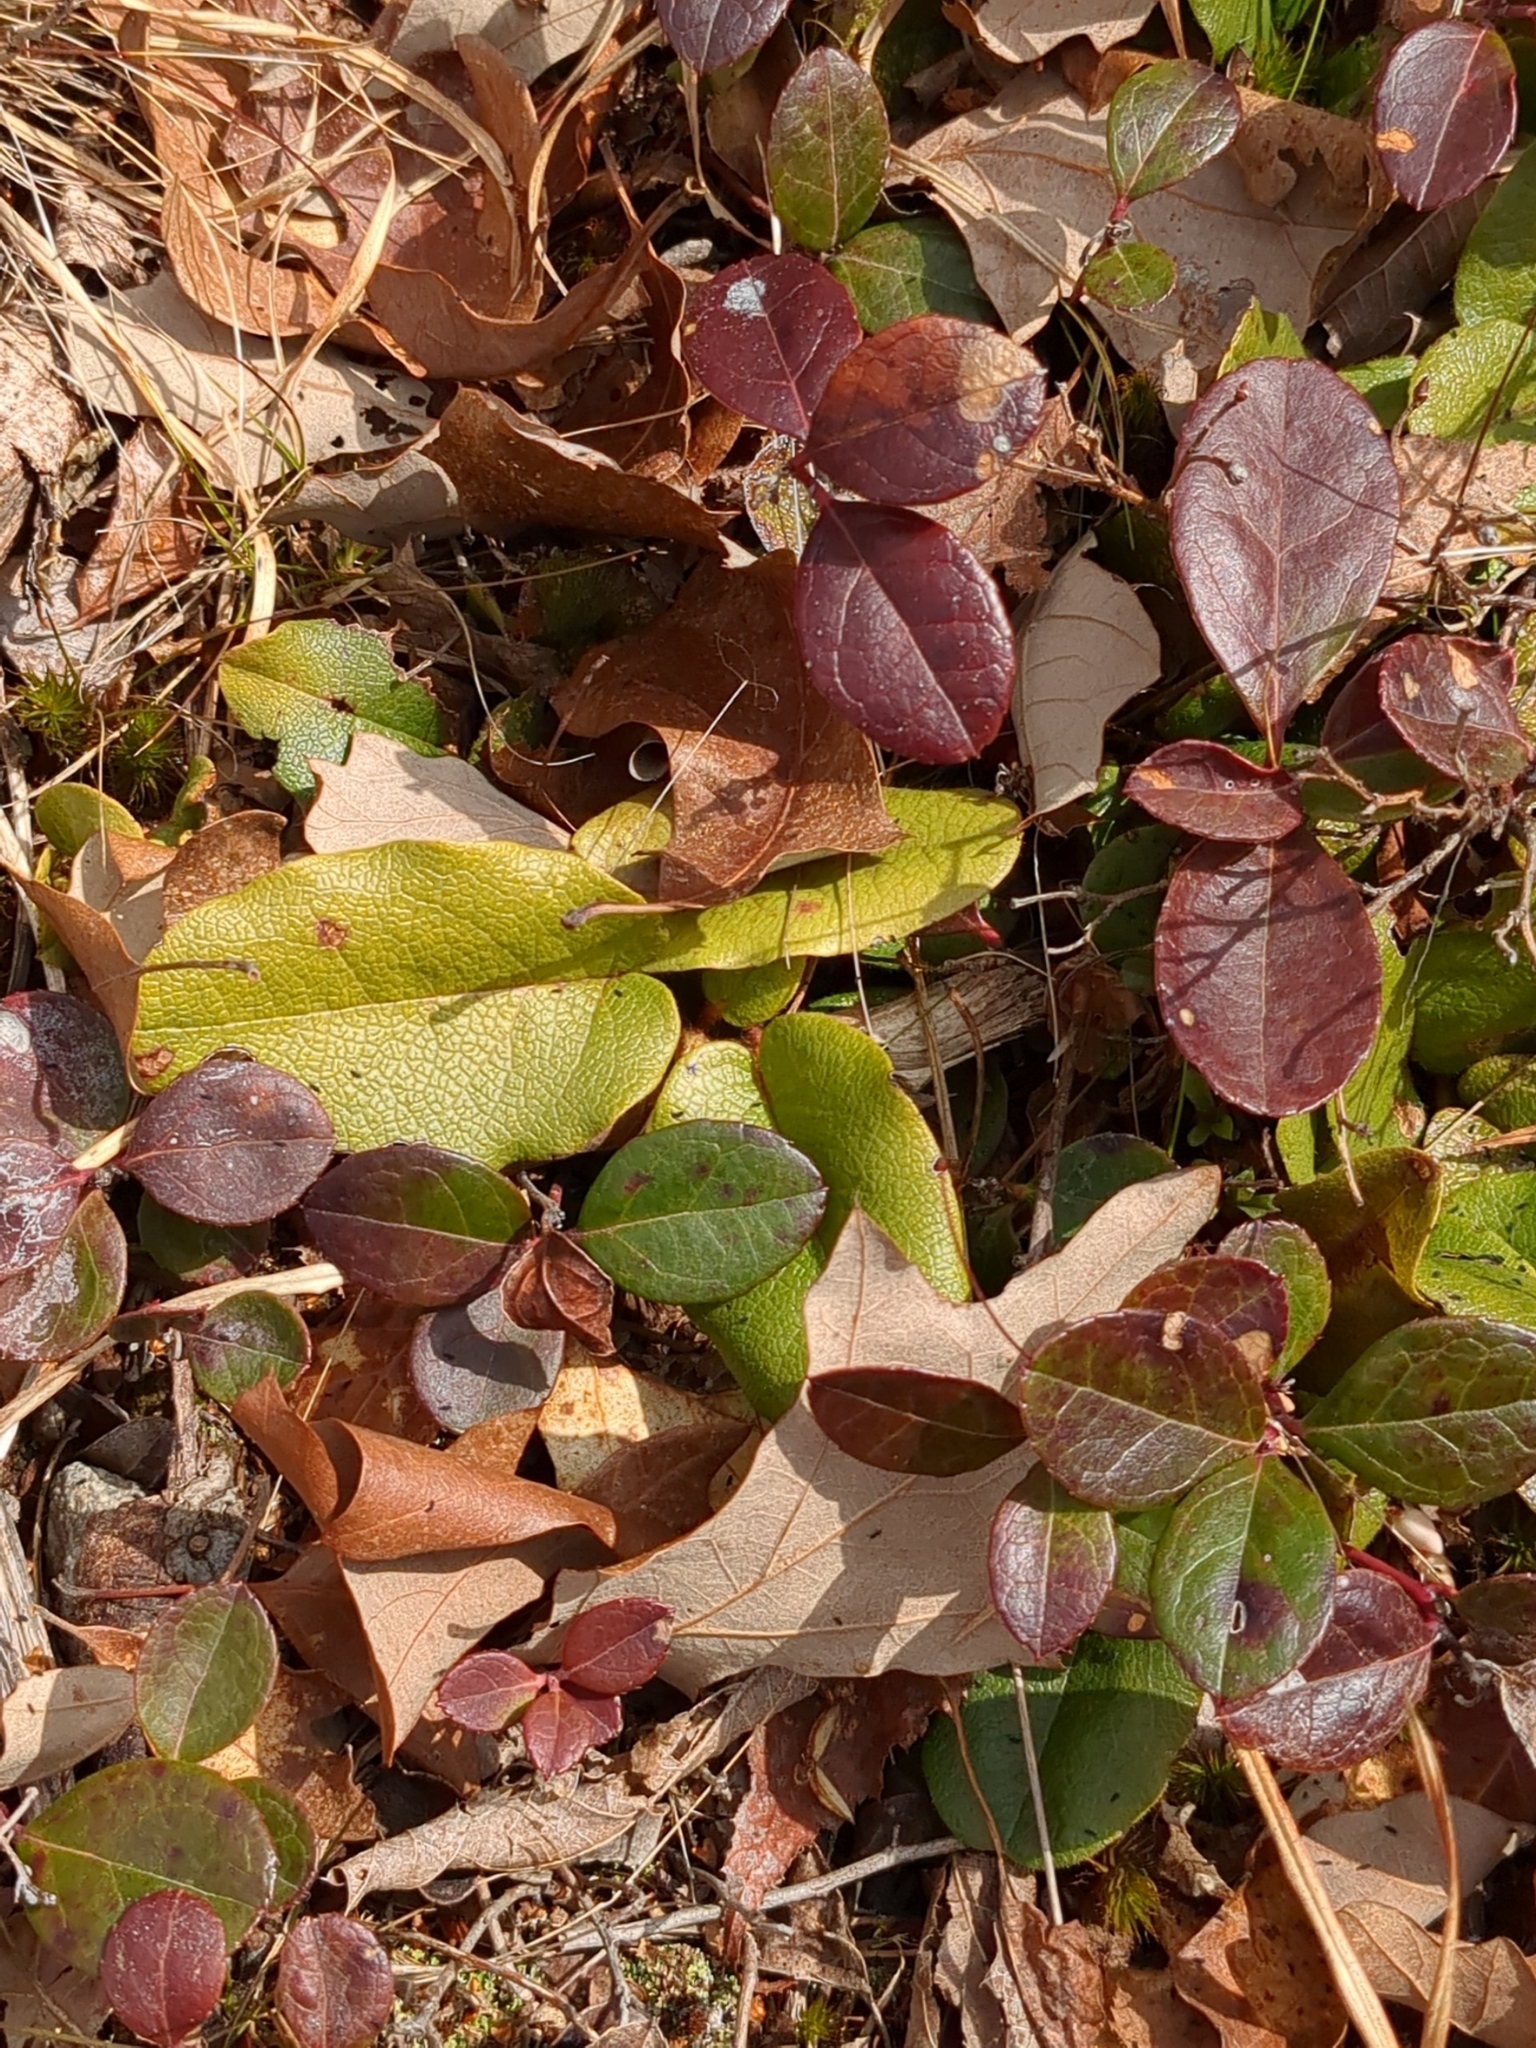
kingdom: Plantae
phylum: Tracheophyta
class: Magnoliopsida
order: Ericales
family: Ericaceae
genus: Epigaea
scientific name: Epigaea repens
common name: Gravelroot
